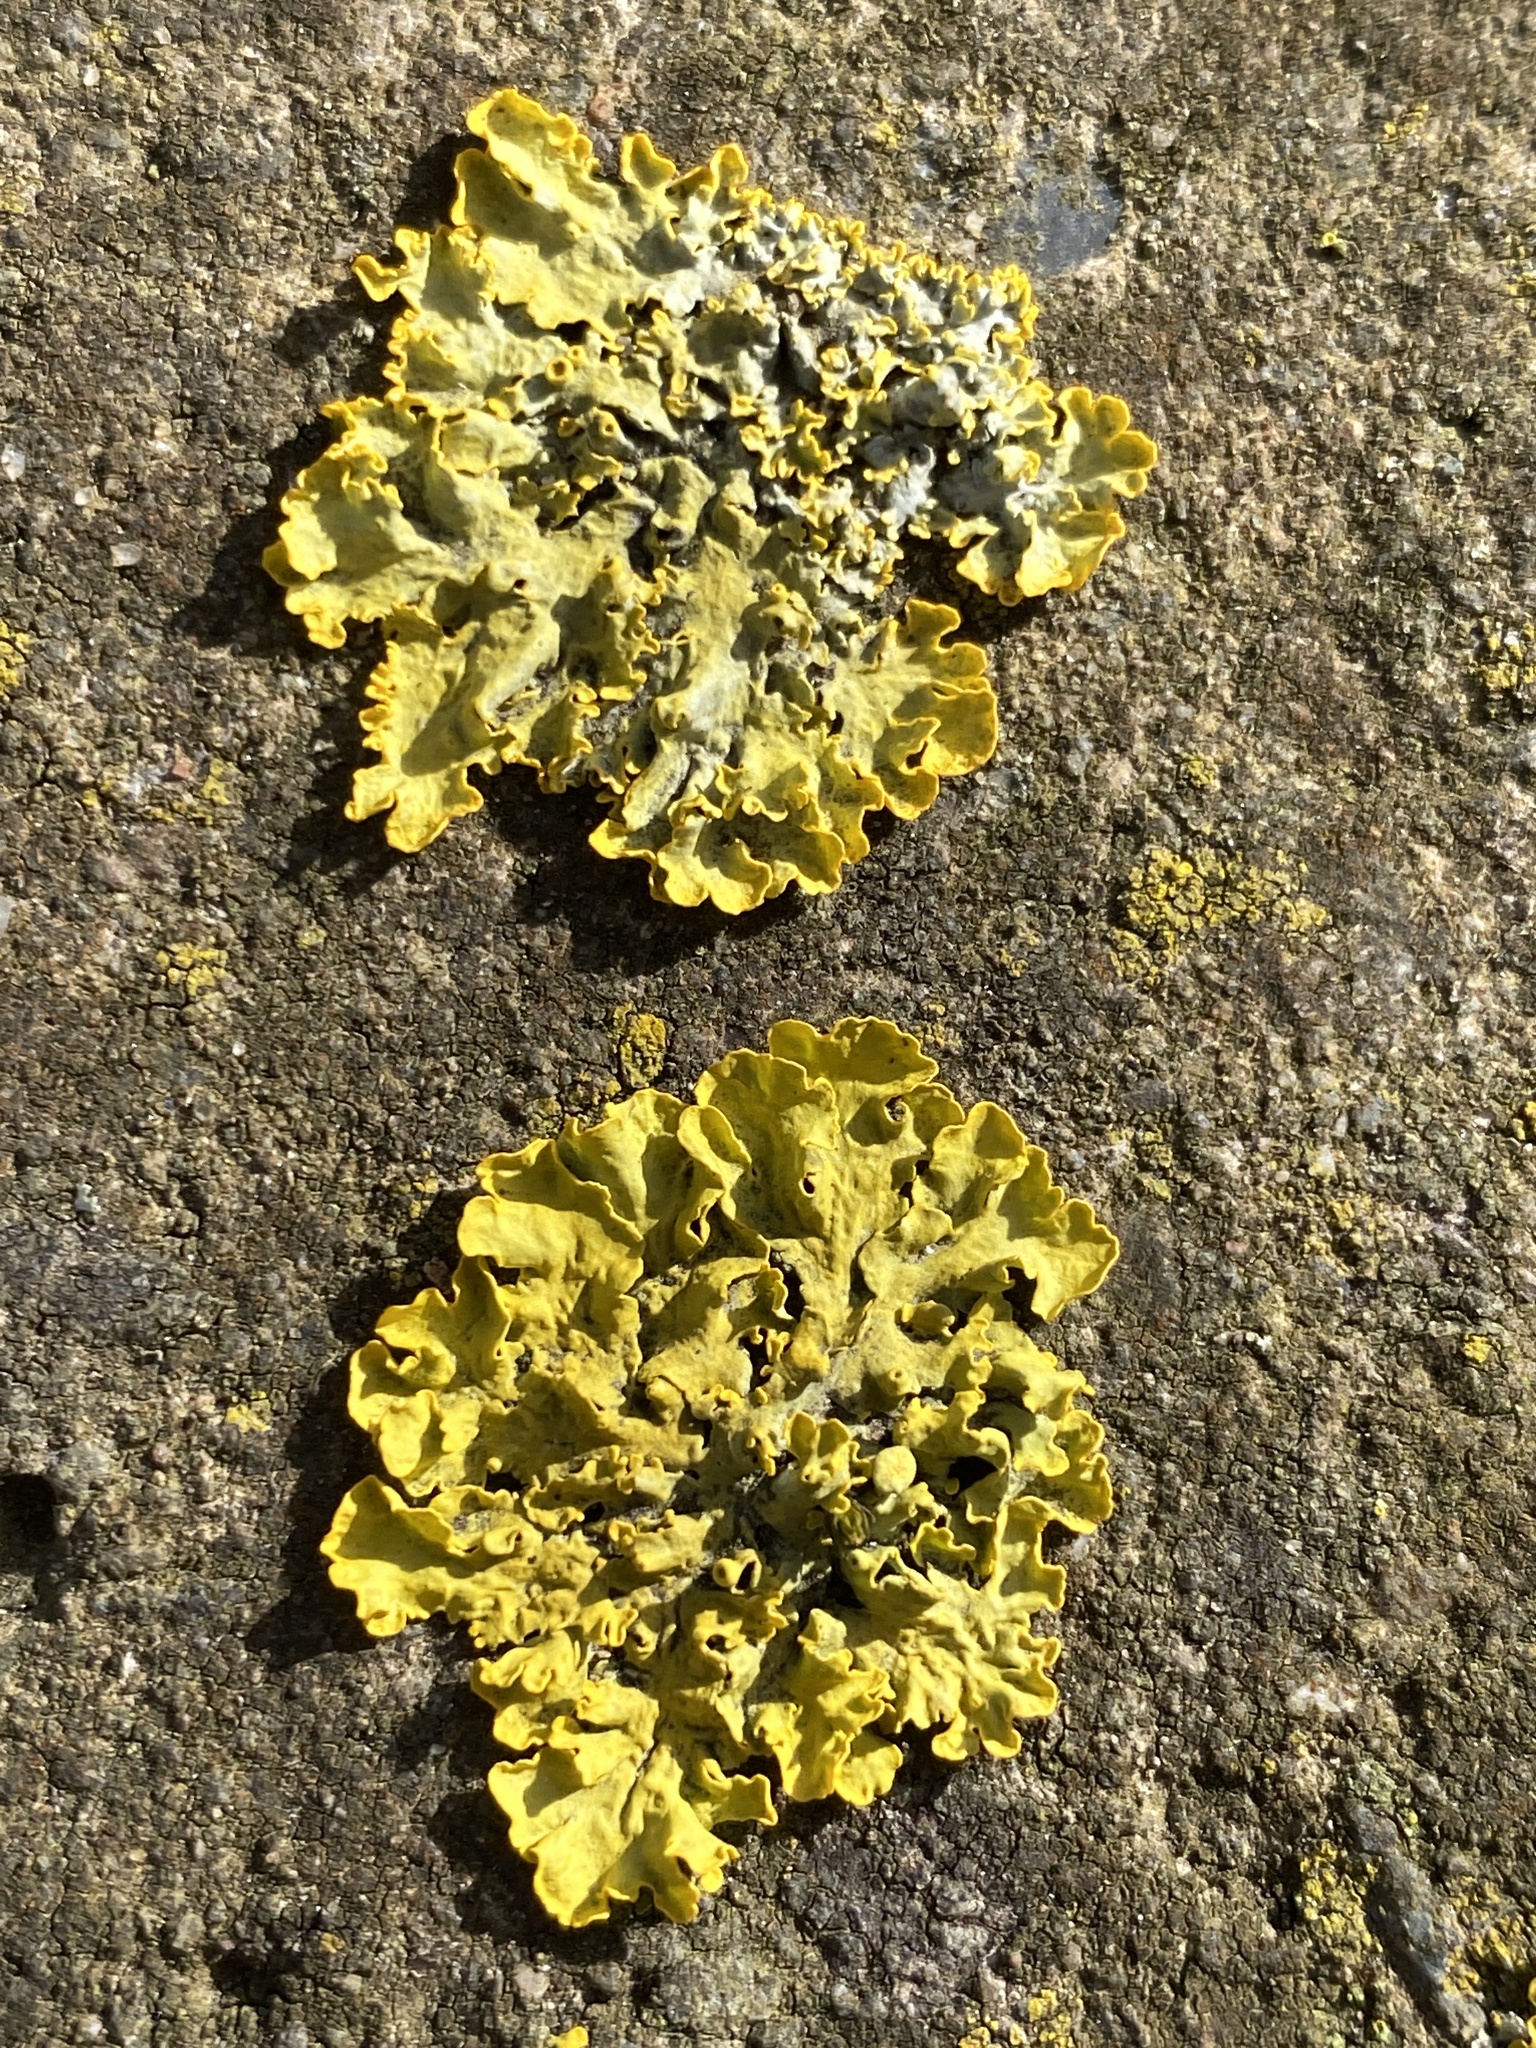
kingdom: Fungi
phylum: Ascomycota
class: Lecanoromycetes
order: Teloschistales
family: Teloschistaceae
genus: Xanthoria
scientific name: Xanthoria parietina
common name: Common orange lichen
